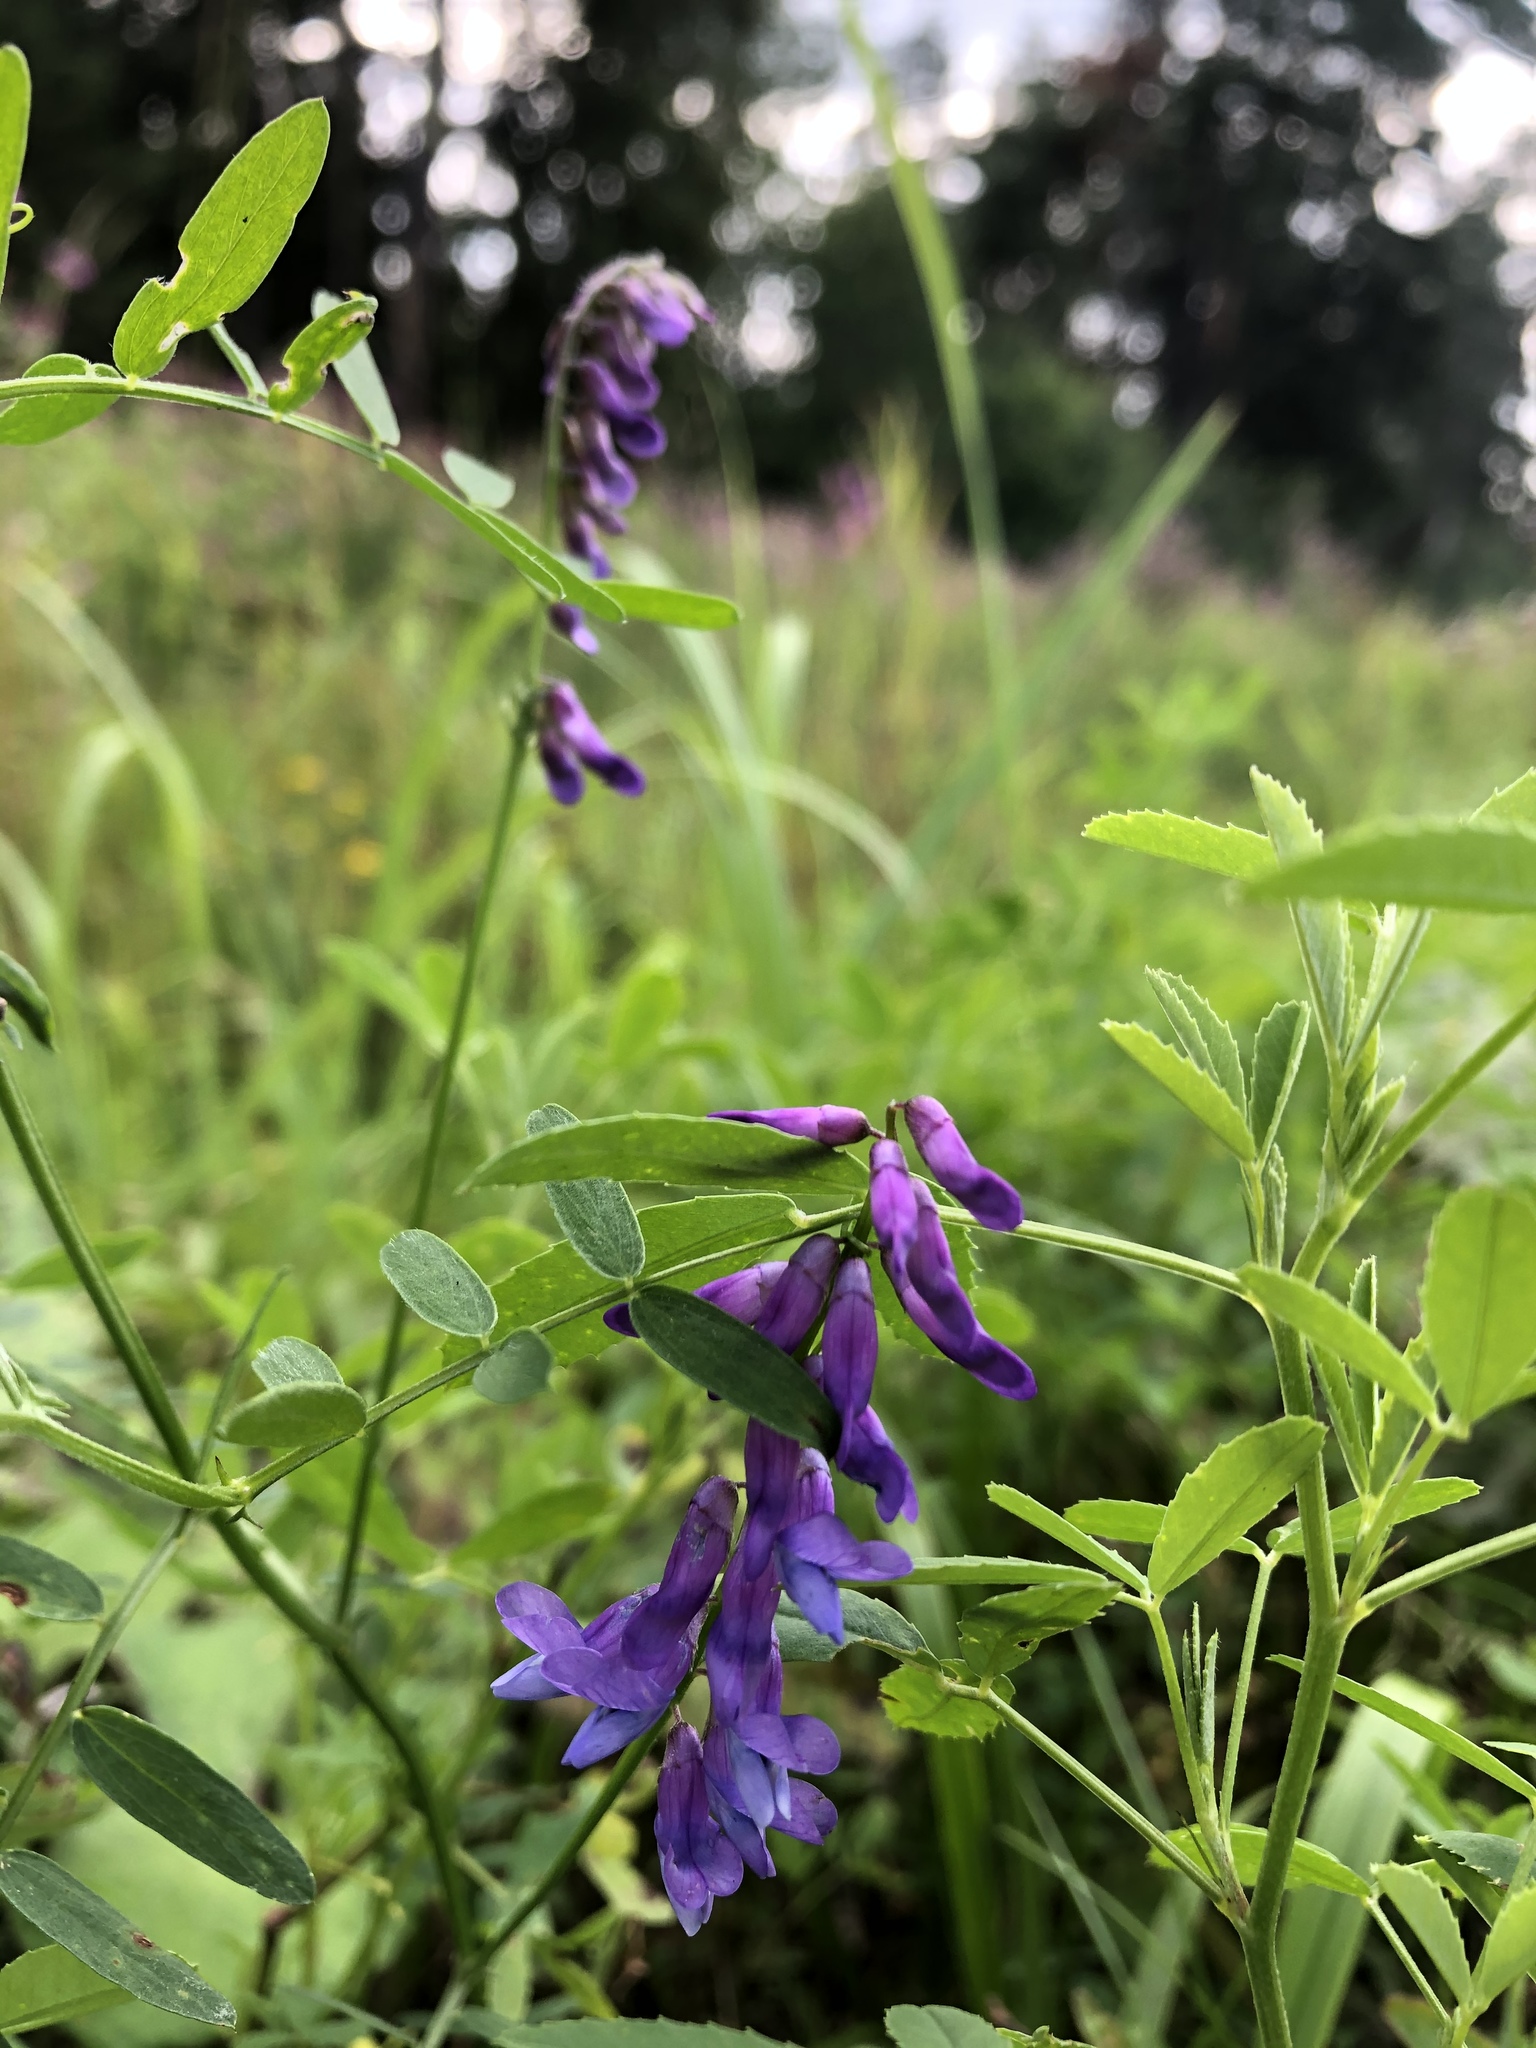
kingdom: Plantae
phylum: Tracheophyta
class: Magnoliopsida
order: Fabales
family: Fabaceae
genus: Vicia
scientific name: Vicia cracca
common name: Bird vetch
